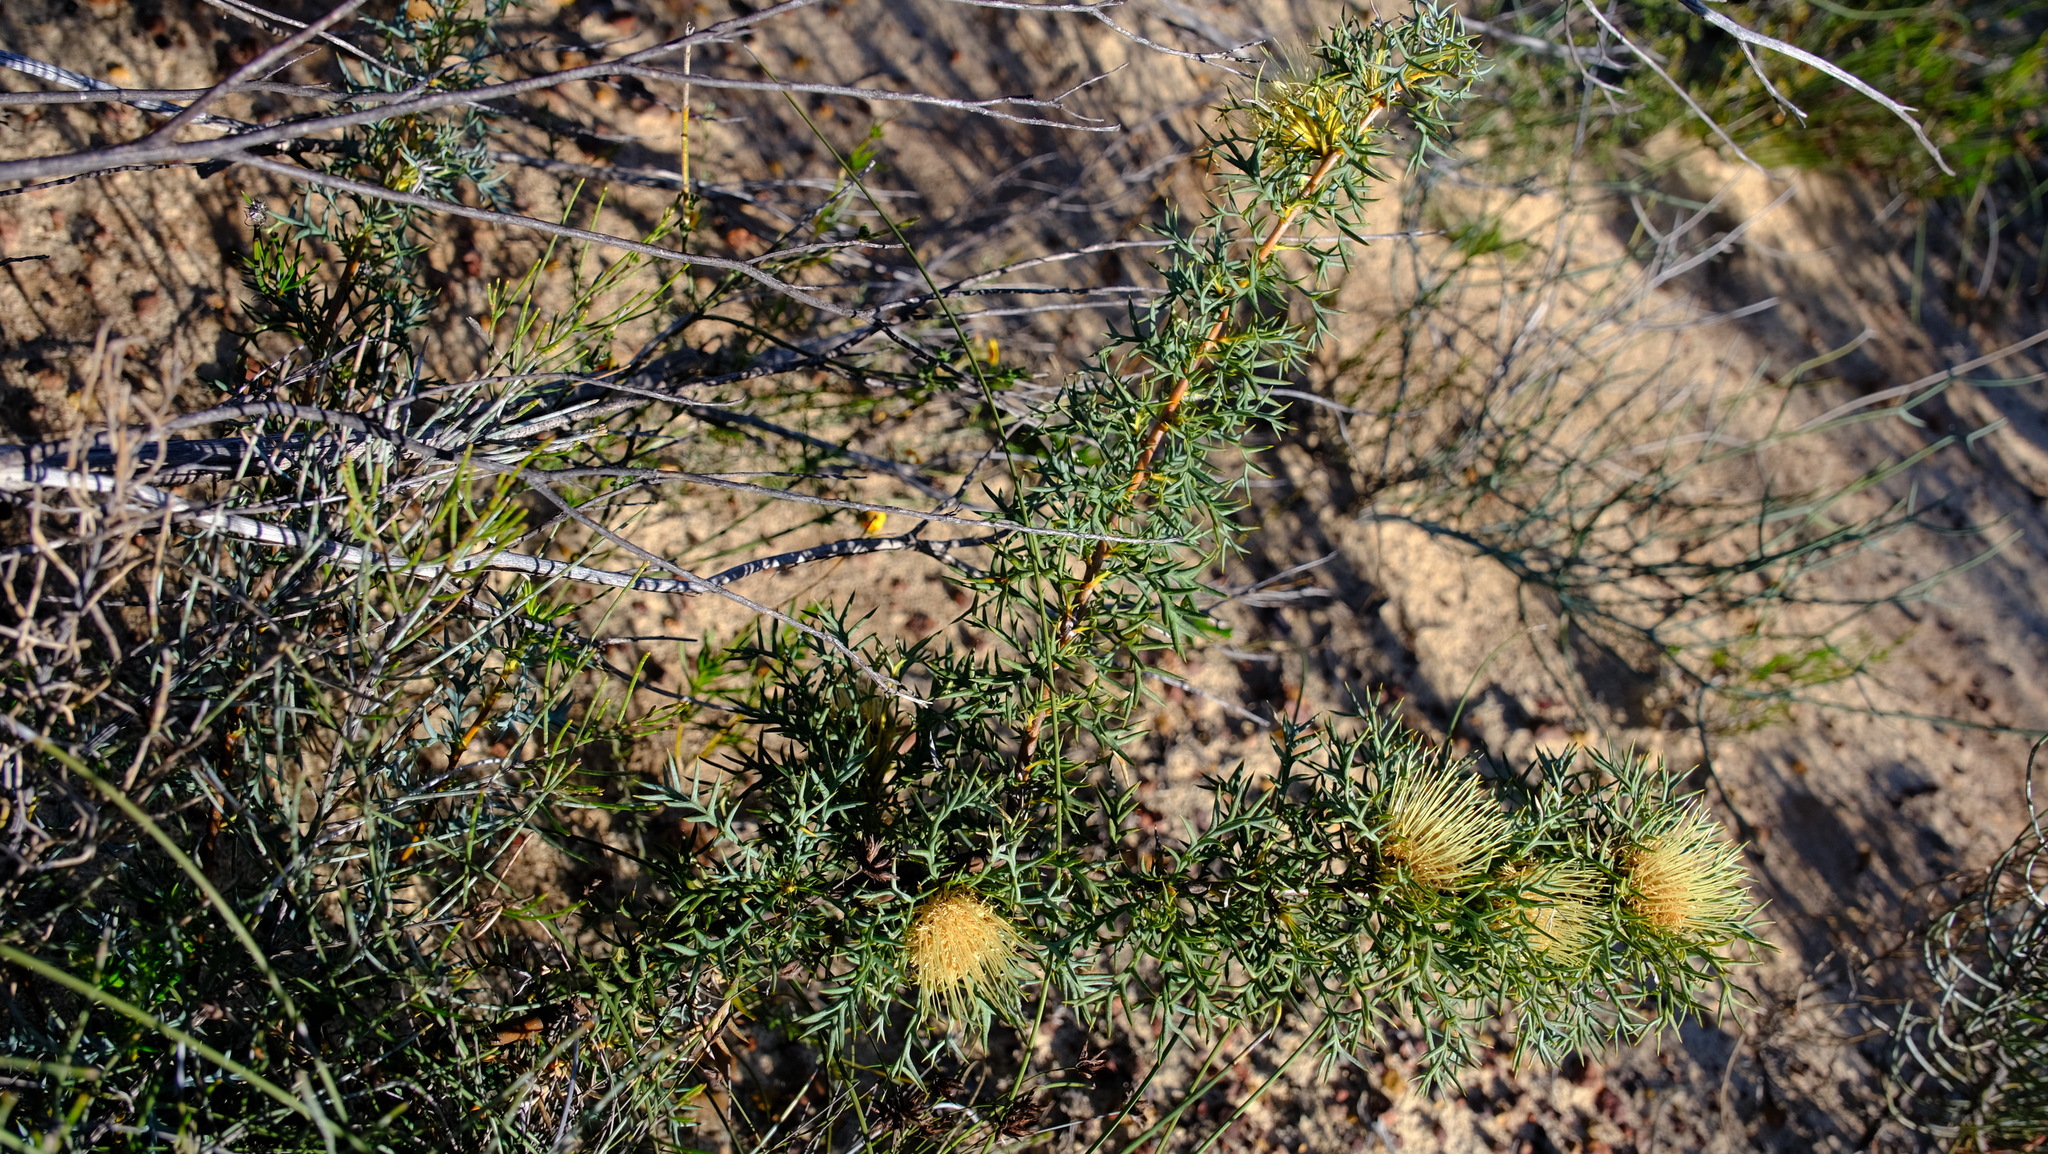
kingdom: Plantae
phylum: Tracheophyta
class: Magnoliopsida
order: Proteales
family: Proteaceae
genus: Banksia
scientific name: Banksia fraseri
